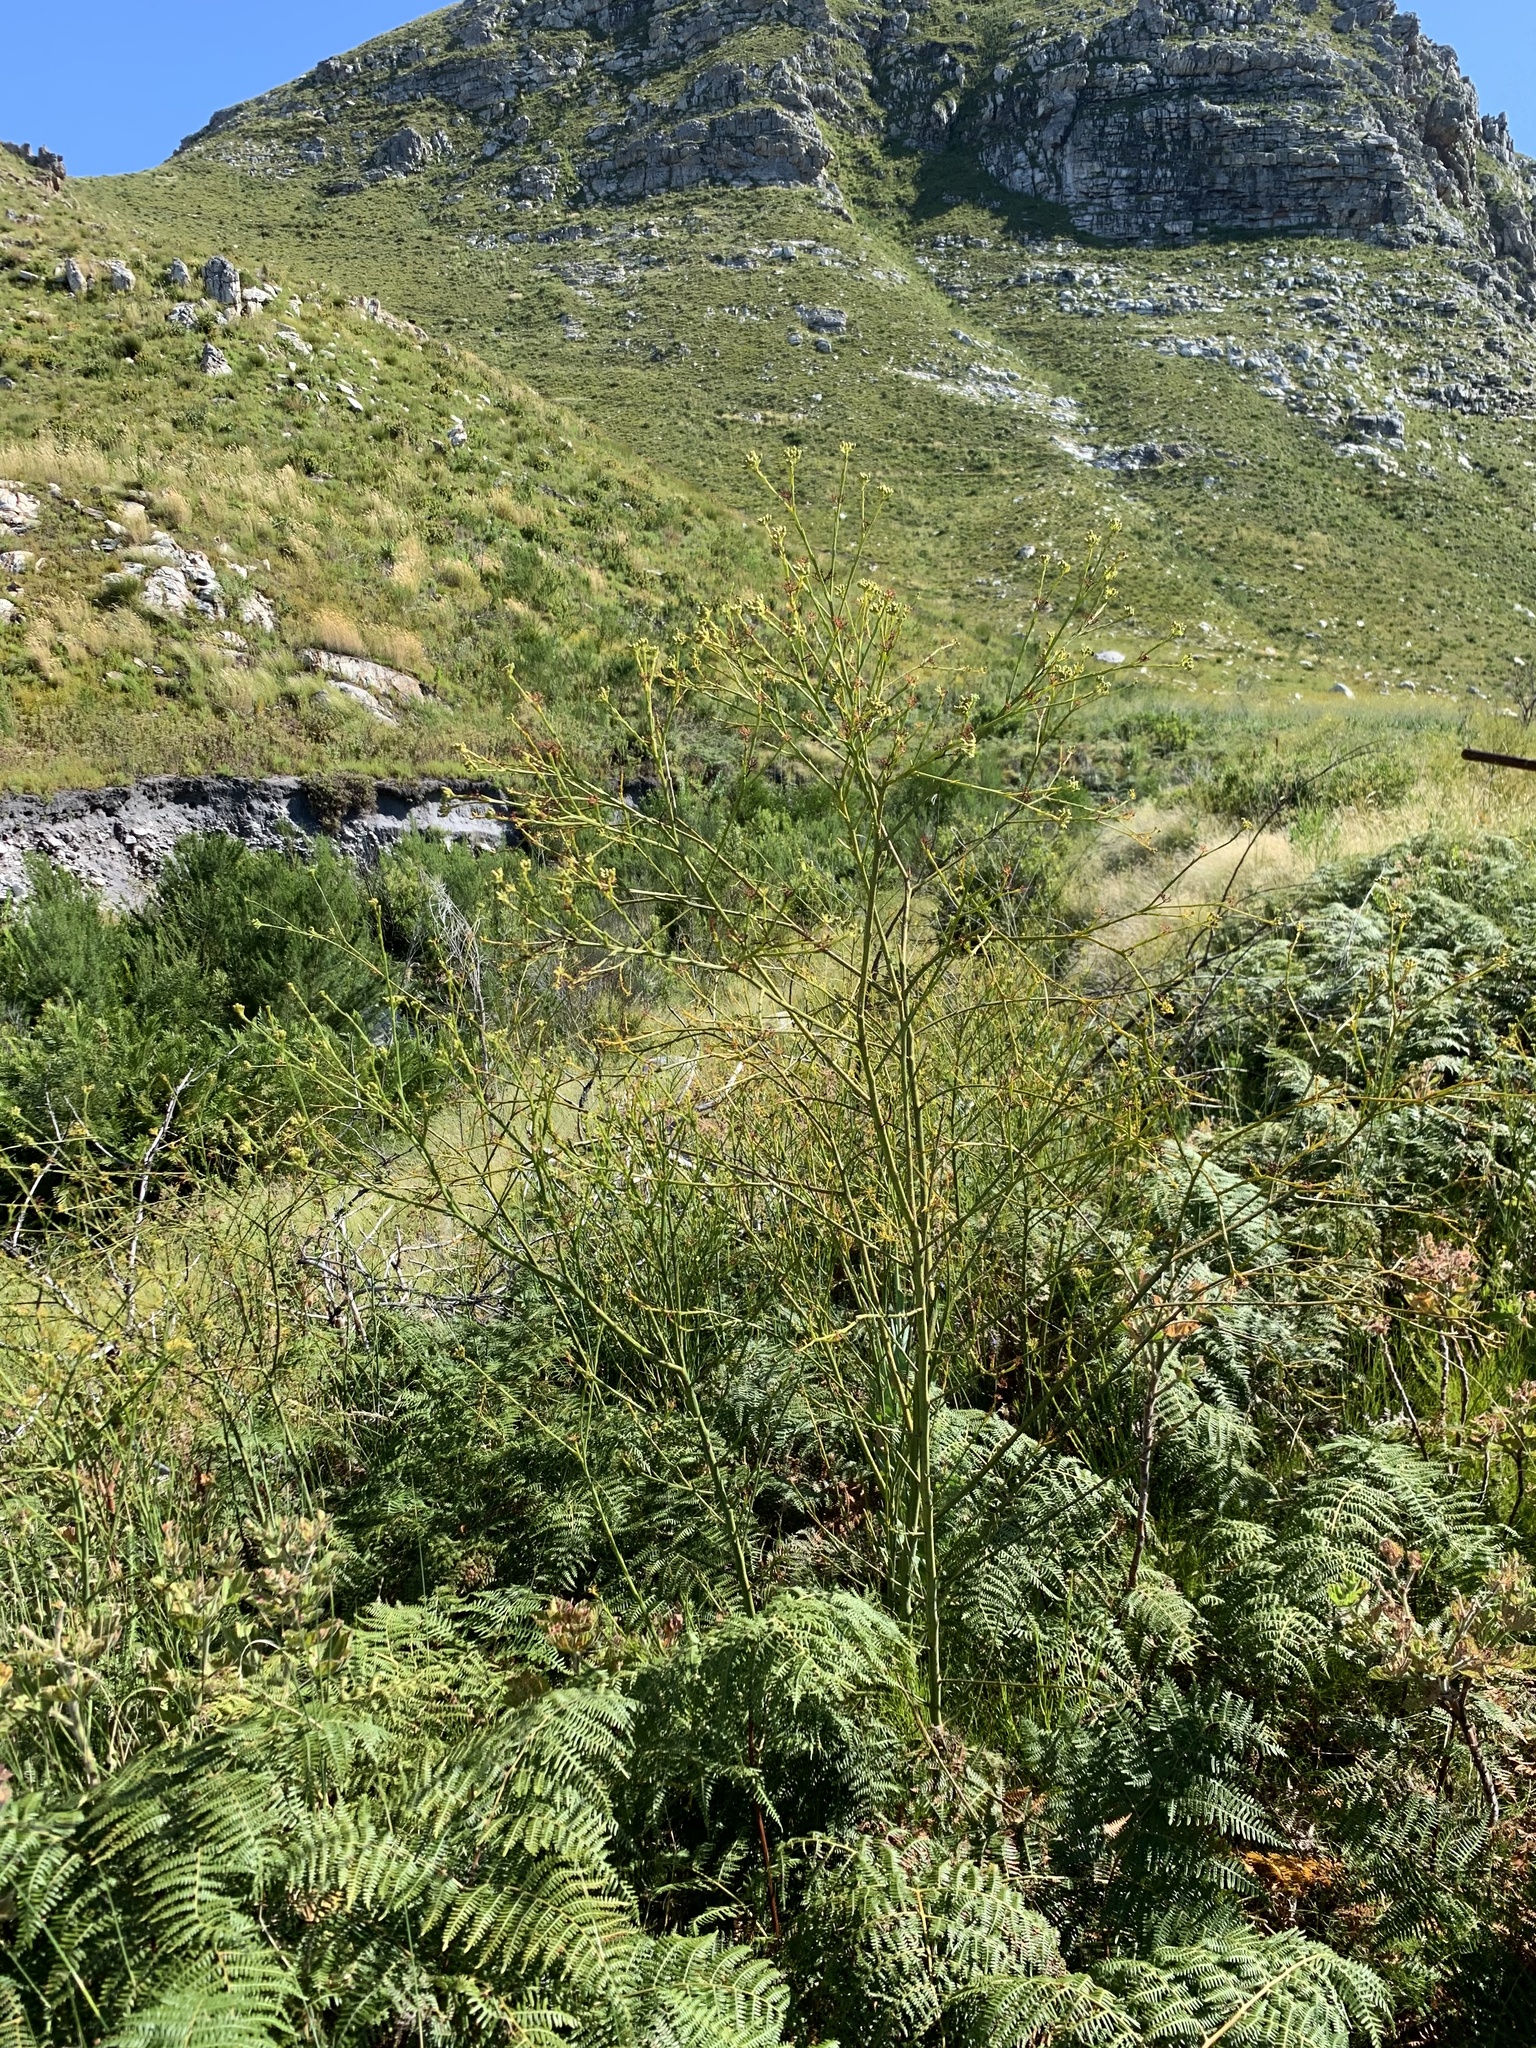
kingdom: Plantae
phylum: Tracheophyta
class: Magnoliopsida
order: Santalales
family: Thesiaceae
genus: Thesium
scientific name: Thesium strictum
